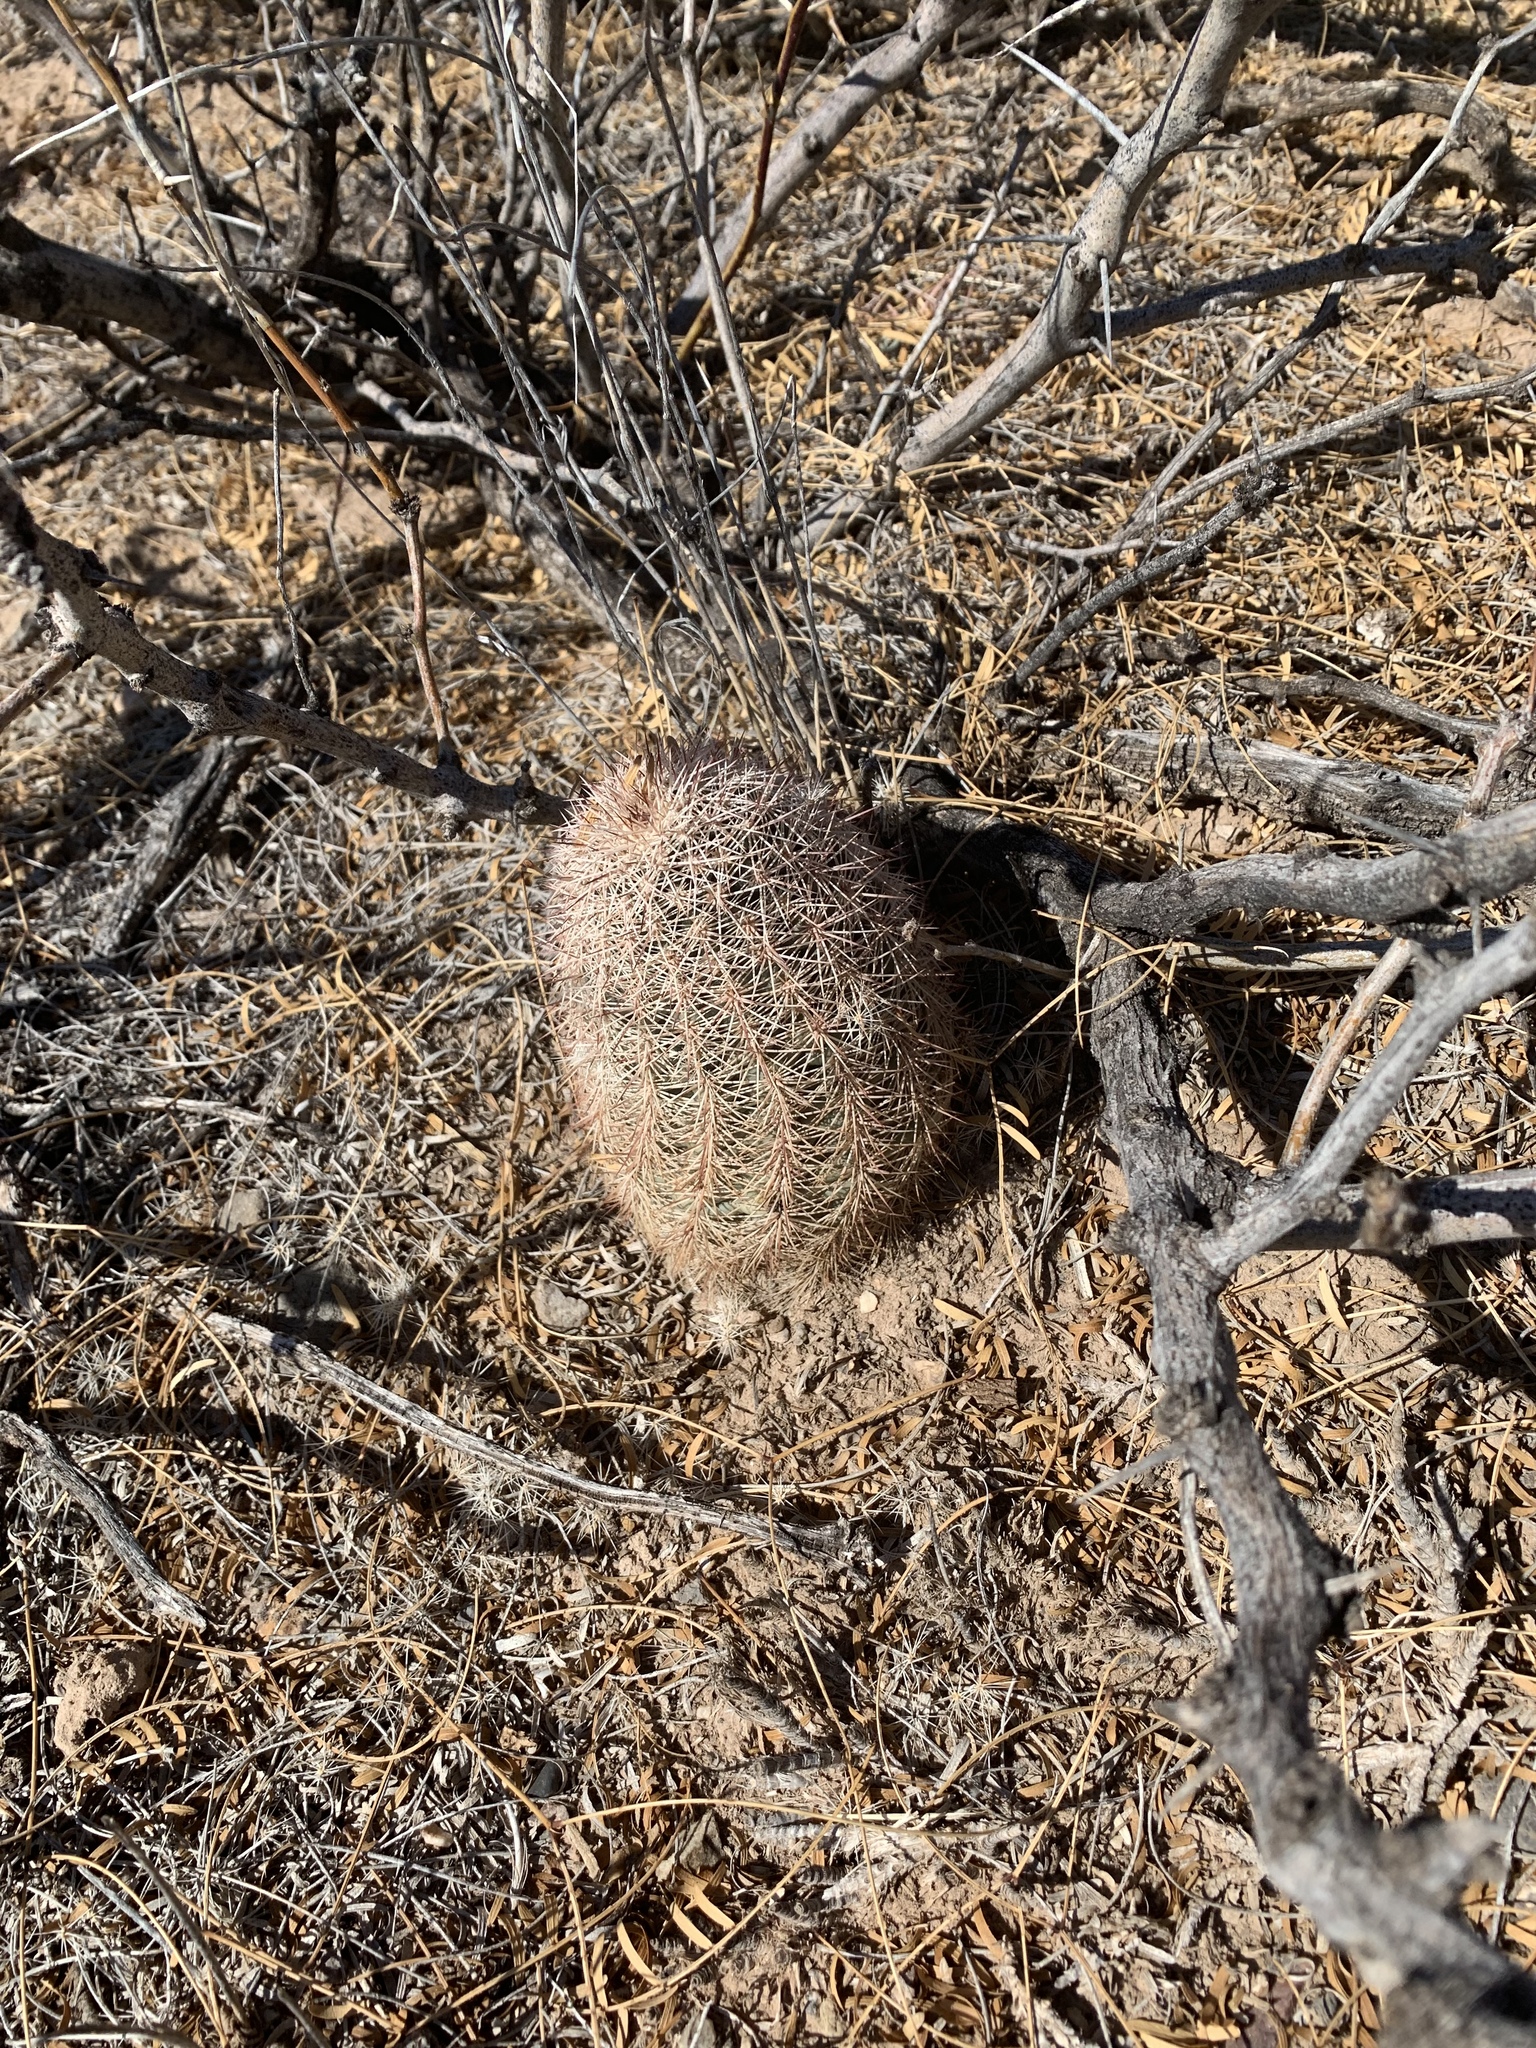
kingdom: Plantae
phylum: Tracheophyta
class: Magnoliopsida
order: Caryophyllales
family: Cactaceae
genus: Echinocereus
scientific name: Echinocereus dasyacanthus
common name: Spiny hedgehog cactus
